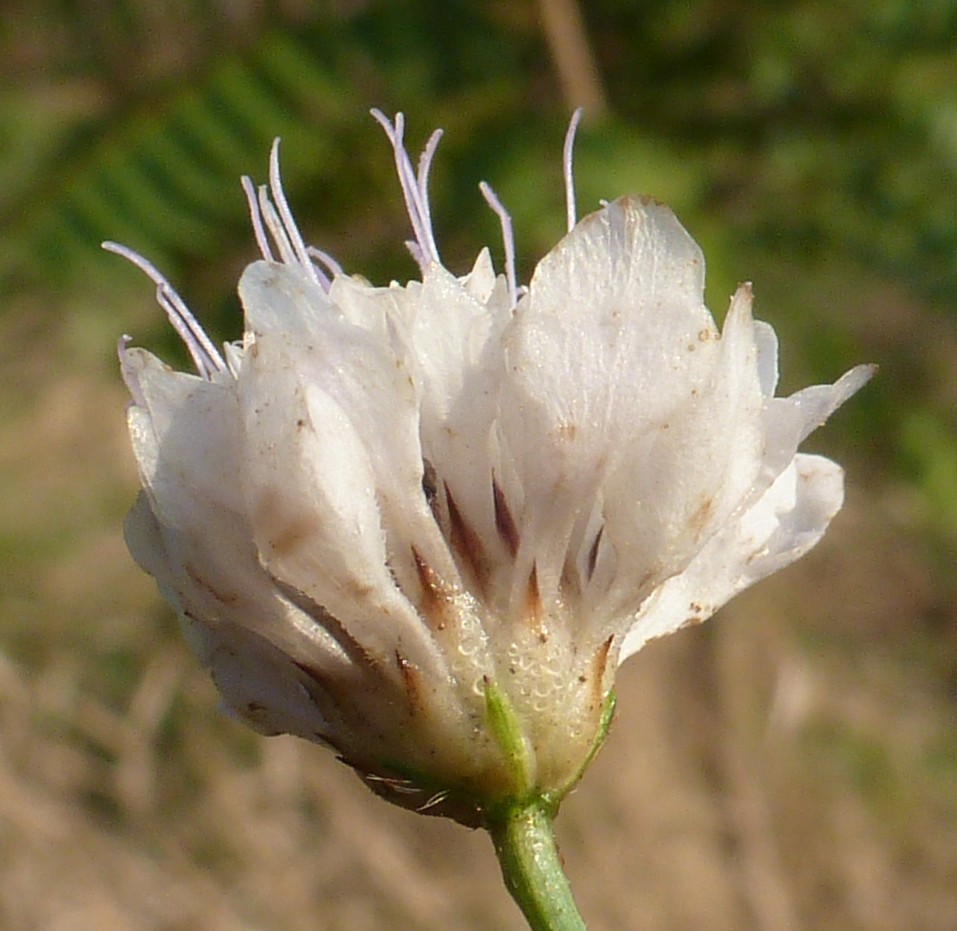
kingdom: Plantae
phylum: Tracheophyta
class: Magnoliopsida
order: Dipsacales
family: Caprifoliaceae
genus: Cephalaria
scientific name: Cephalaria transsylvanica
